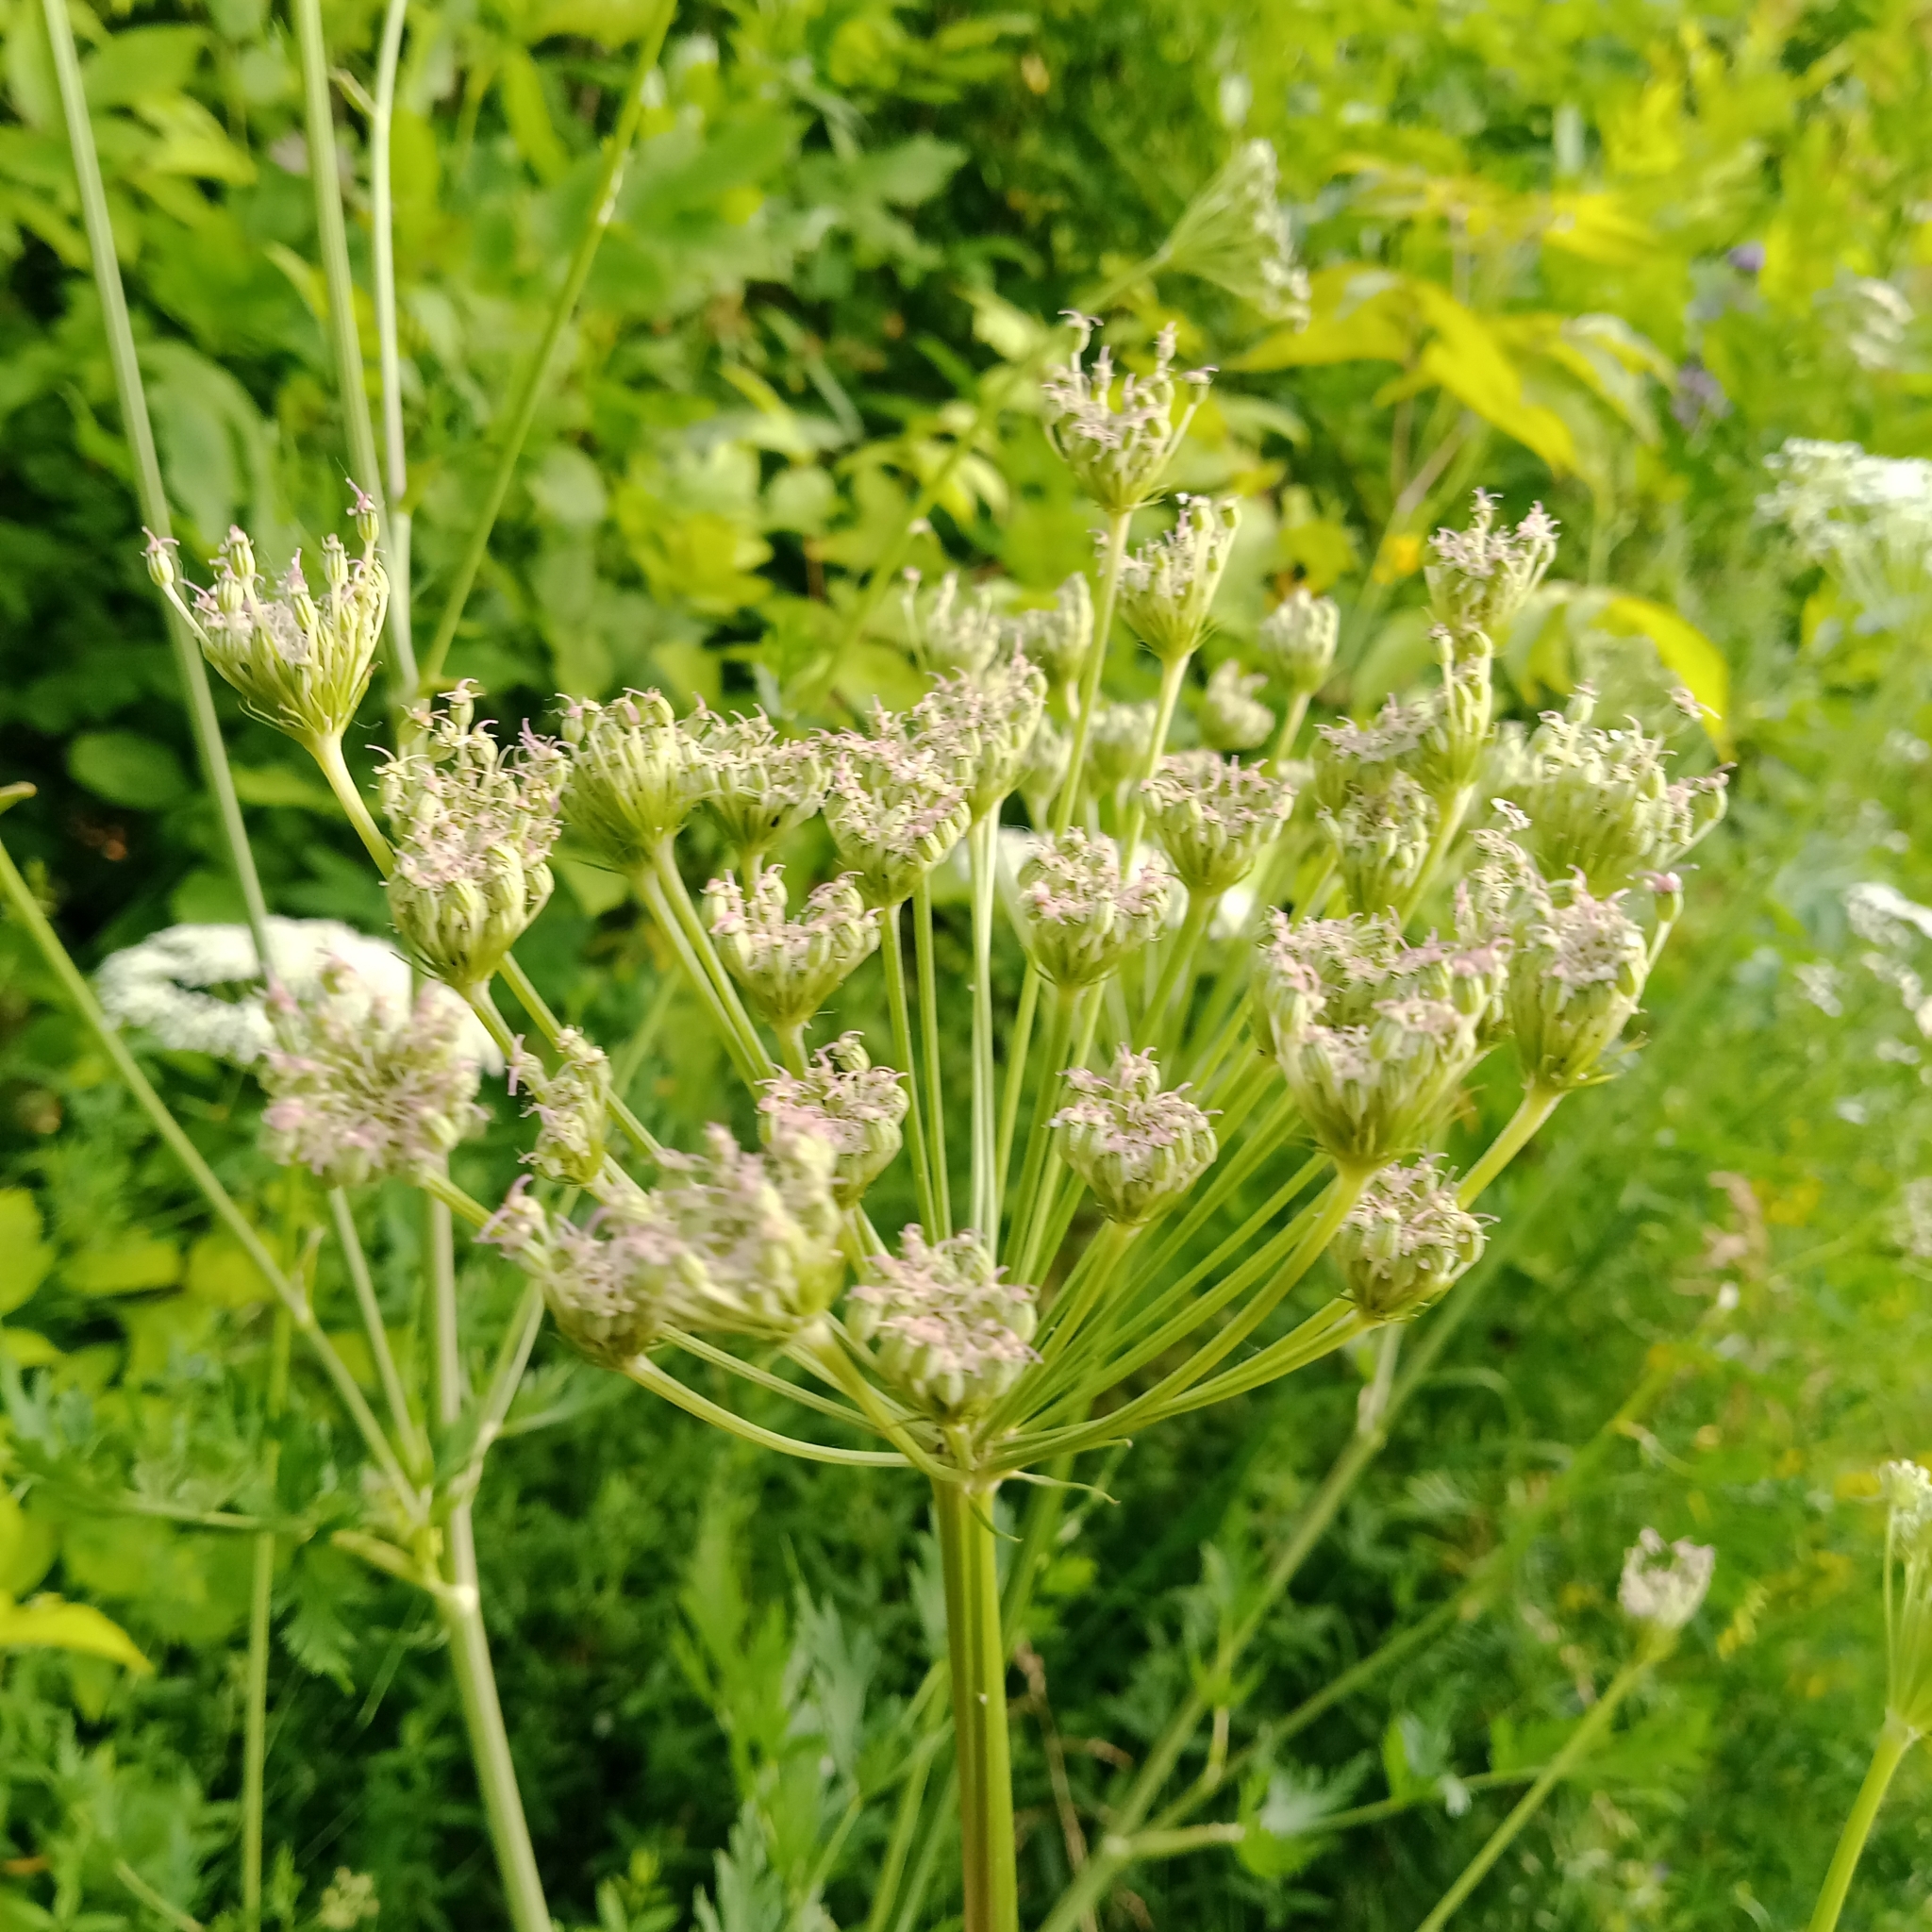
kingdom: Plantae
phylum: Tracheophyta
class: Magnoliopsida
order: Apiales
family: Apiaceae
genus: Seseli
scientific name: Seseli libanotis
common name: Mooncarrot
